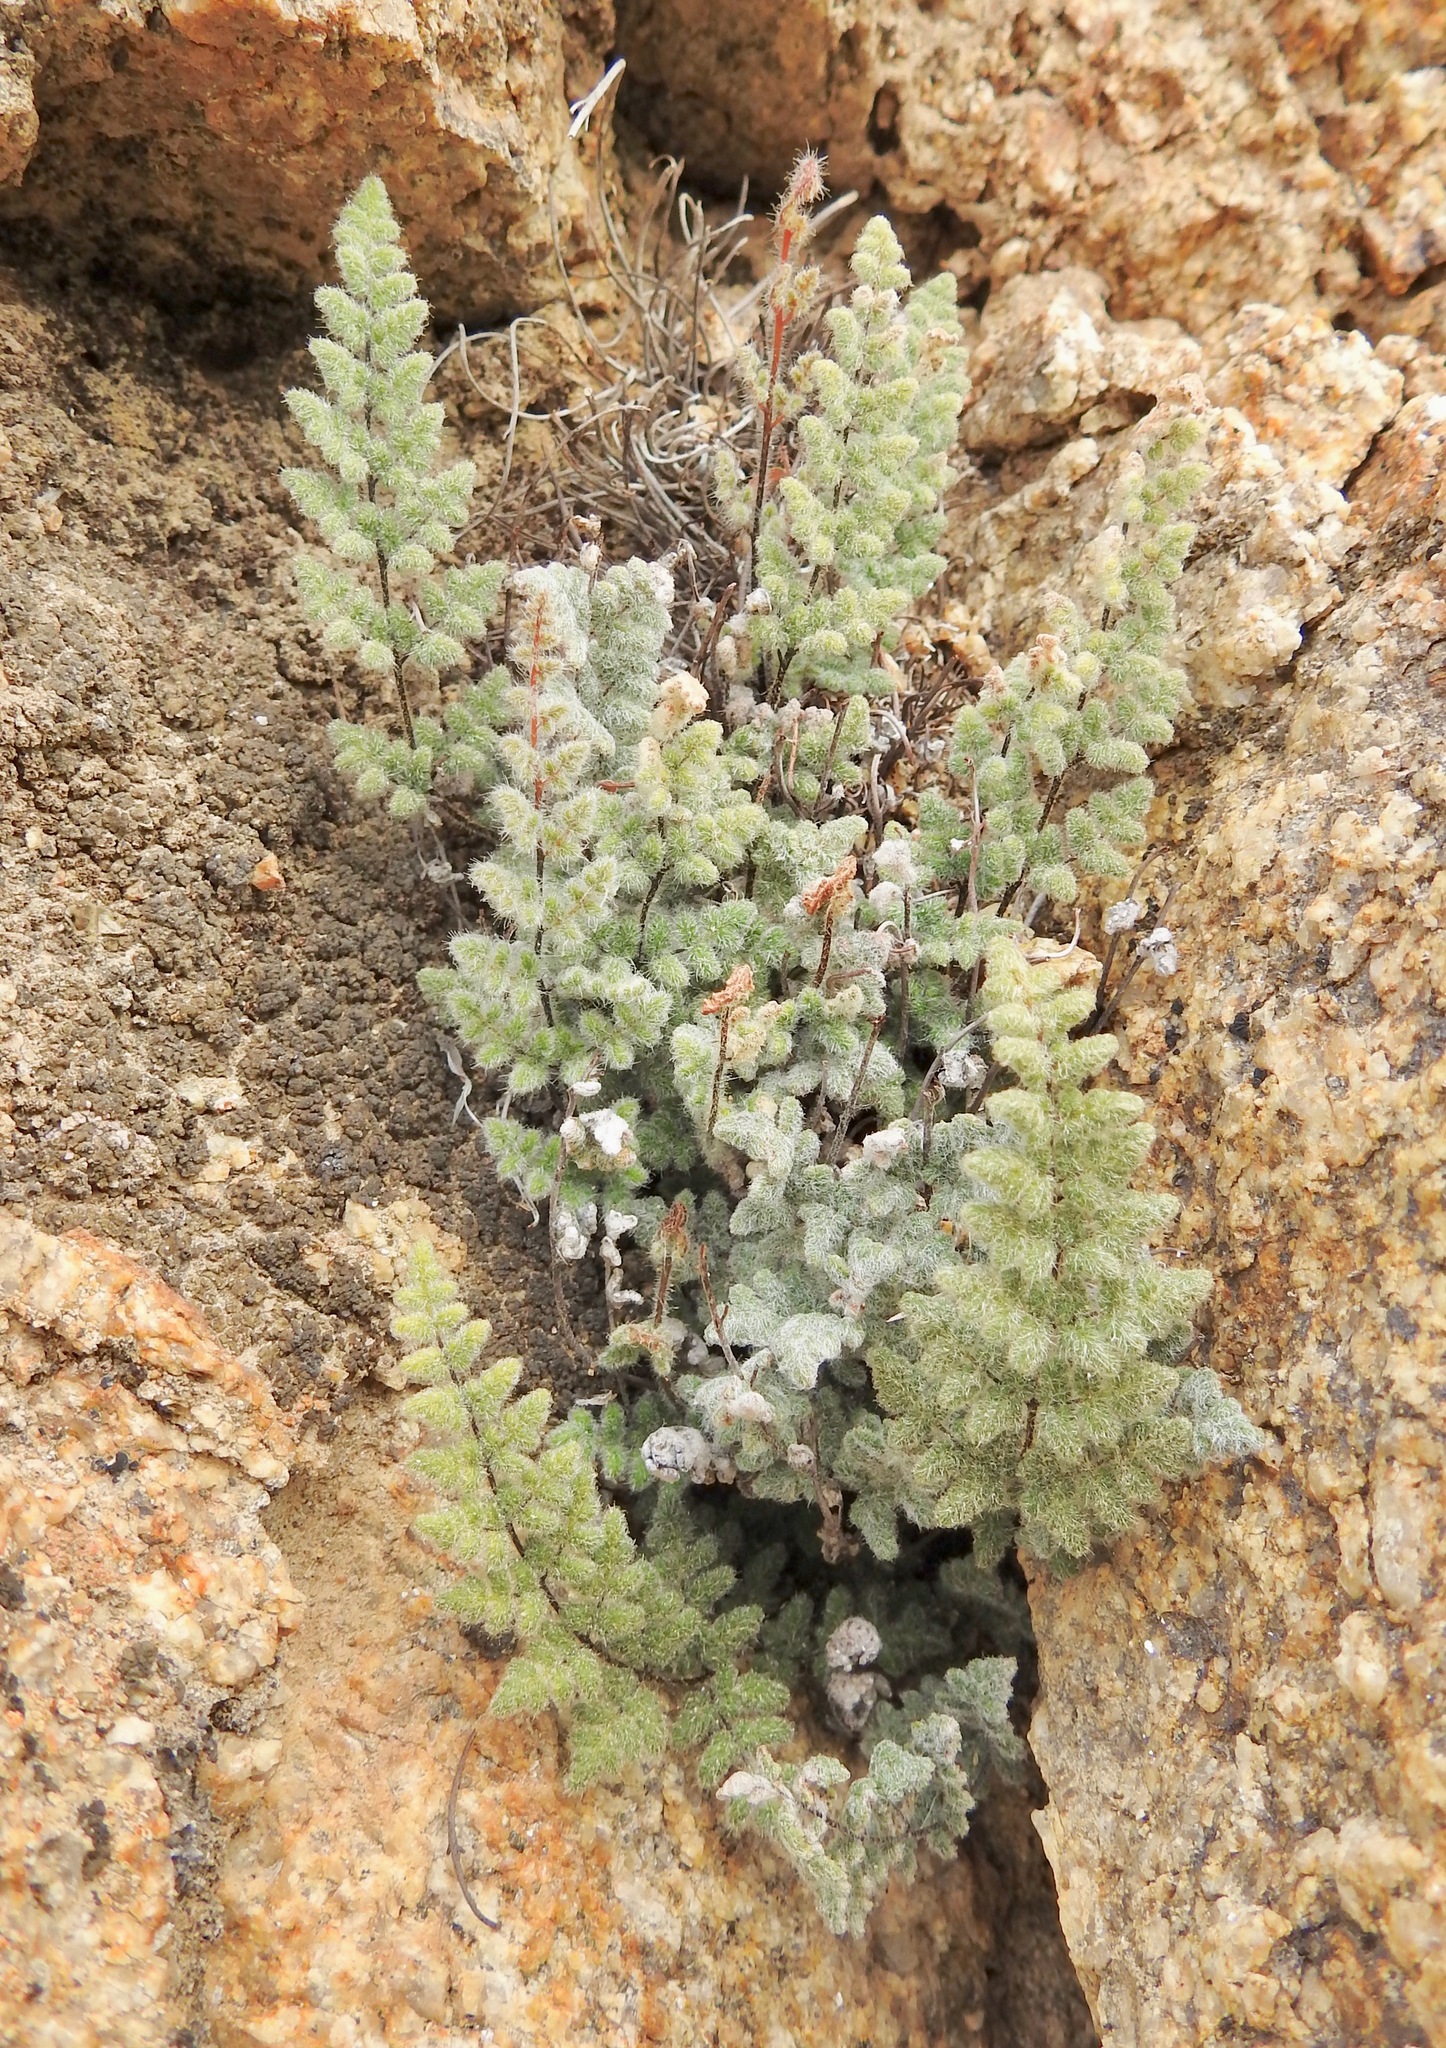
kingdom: Plantae
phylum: Tracheophyta
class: Polypodiopsida
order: Polypodiales
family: Pteridaceae
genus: Myriopteris
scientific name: Myriopteris parryi
